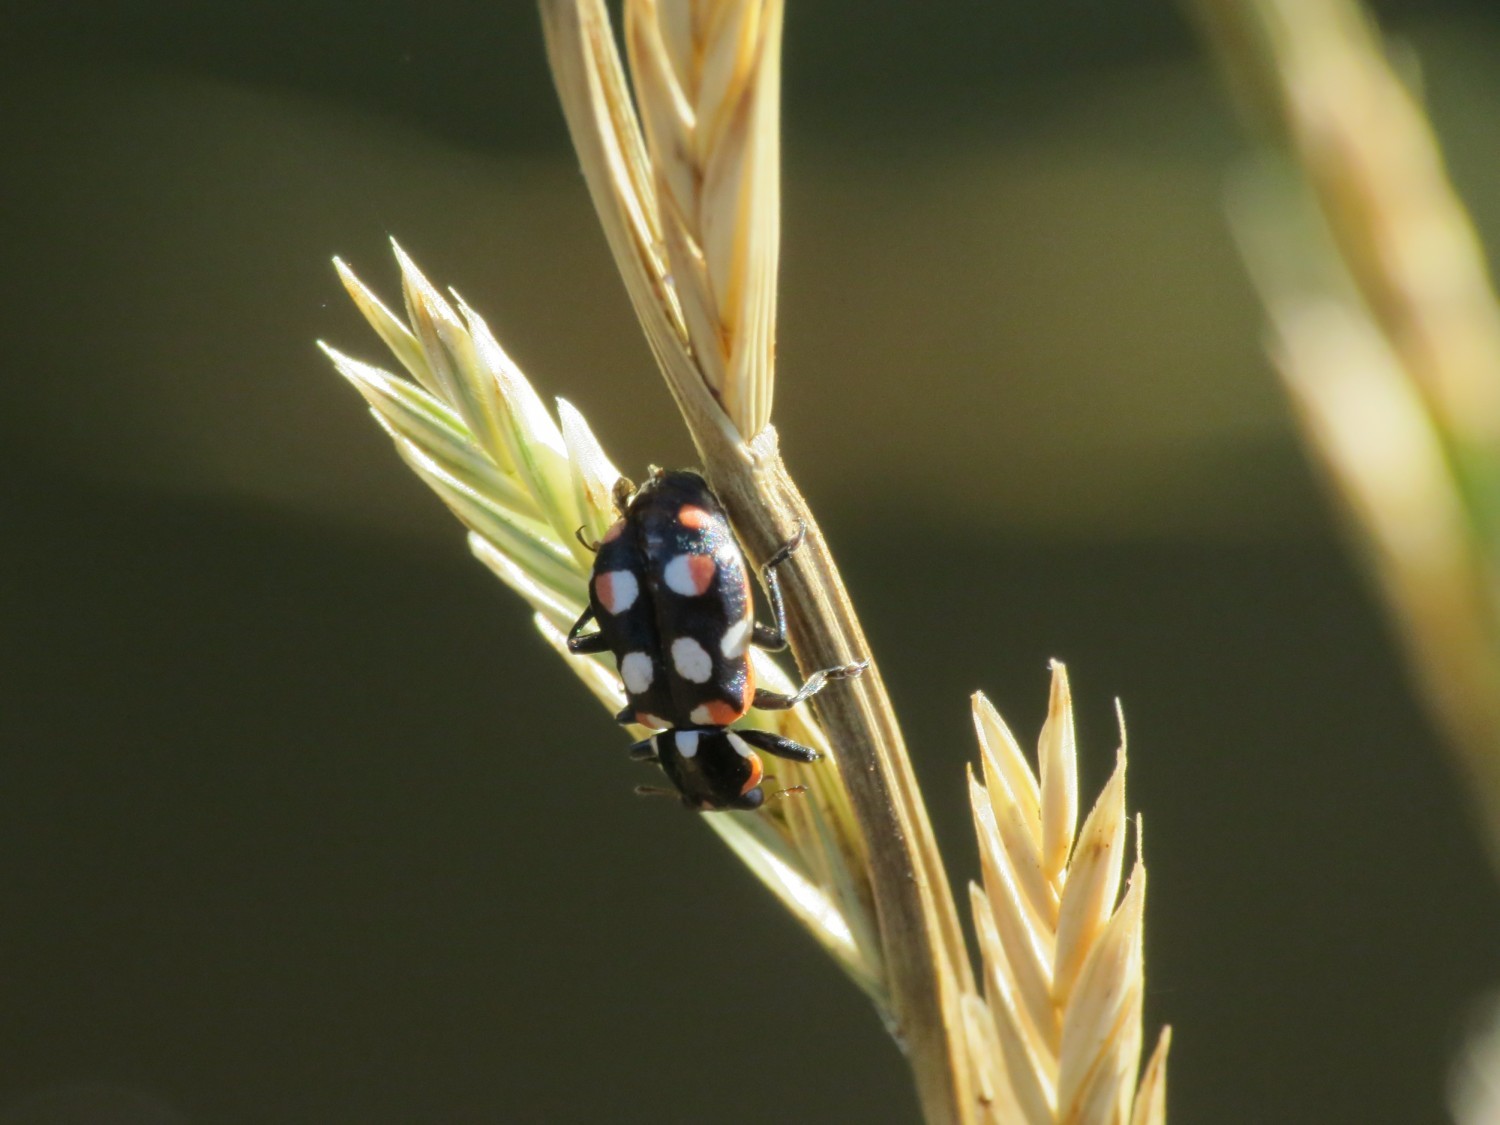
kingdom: Animalia
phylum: Arthropoda
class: Insecta
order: Coleoptera
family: Coccinellidae
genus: Eriopis
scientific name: Eriopis connexa
